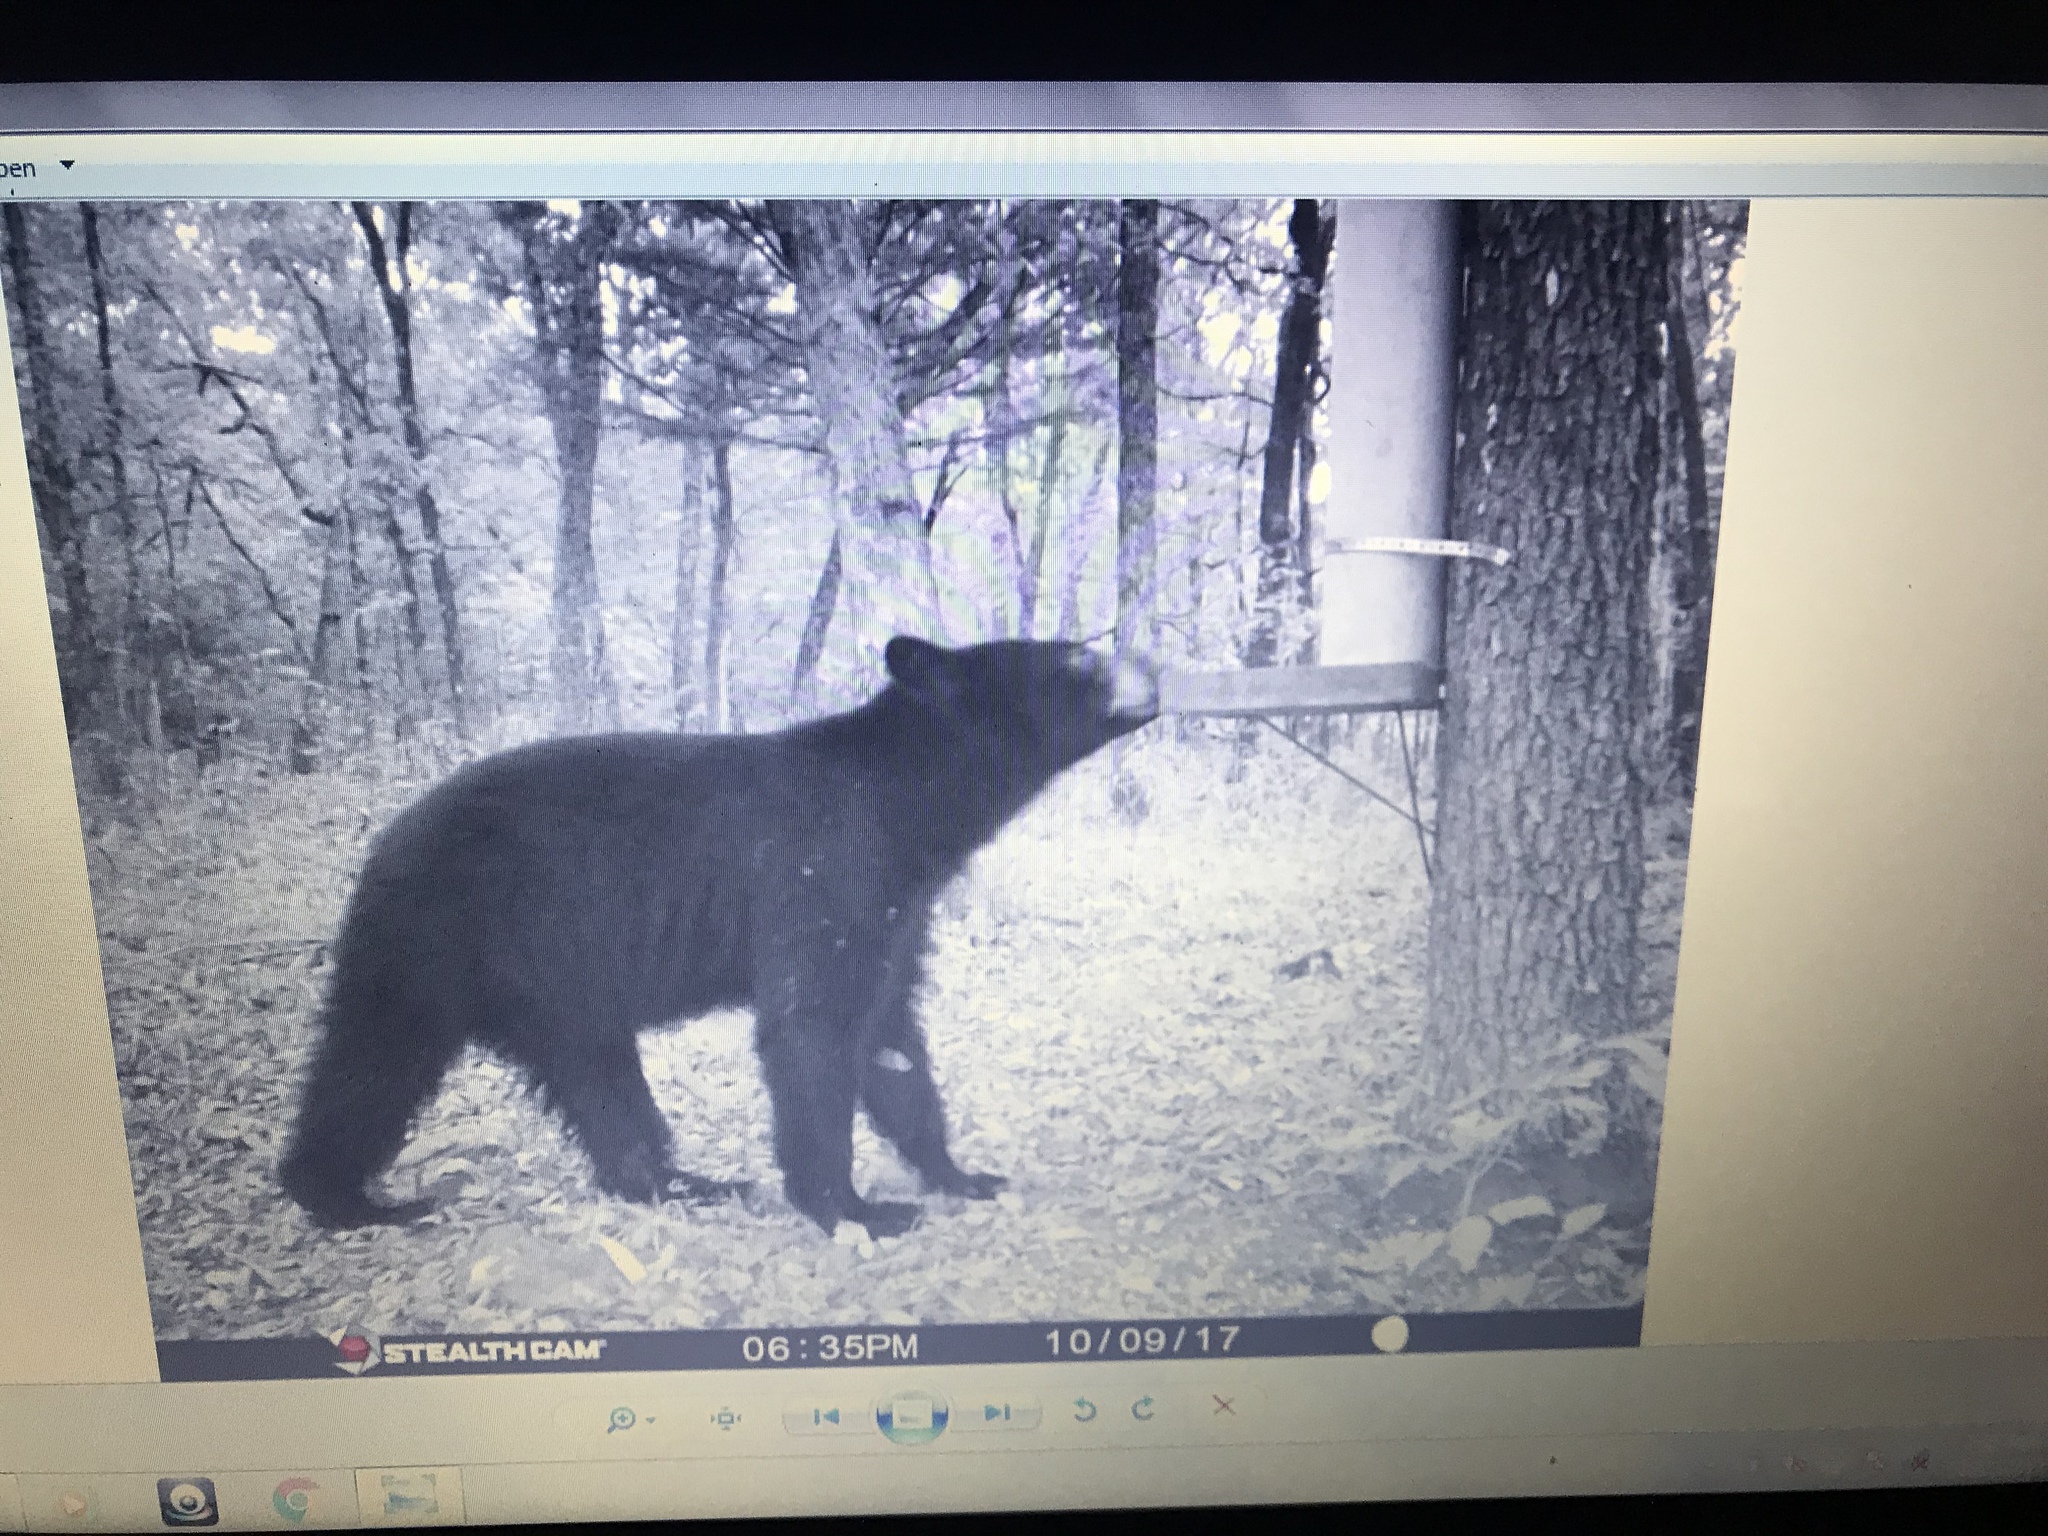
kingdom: Animalia
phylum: Chordata
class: Mammalia
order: Carnivora
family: Ursidae
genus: Ursus
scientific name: Ursus americanus
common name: American black bear
